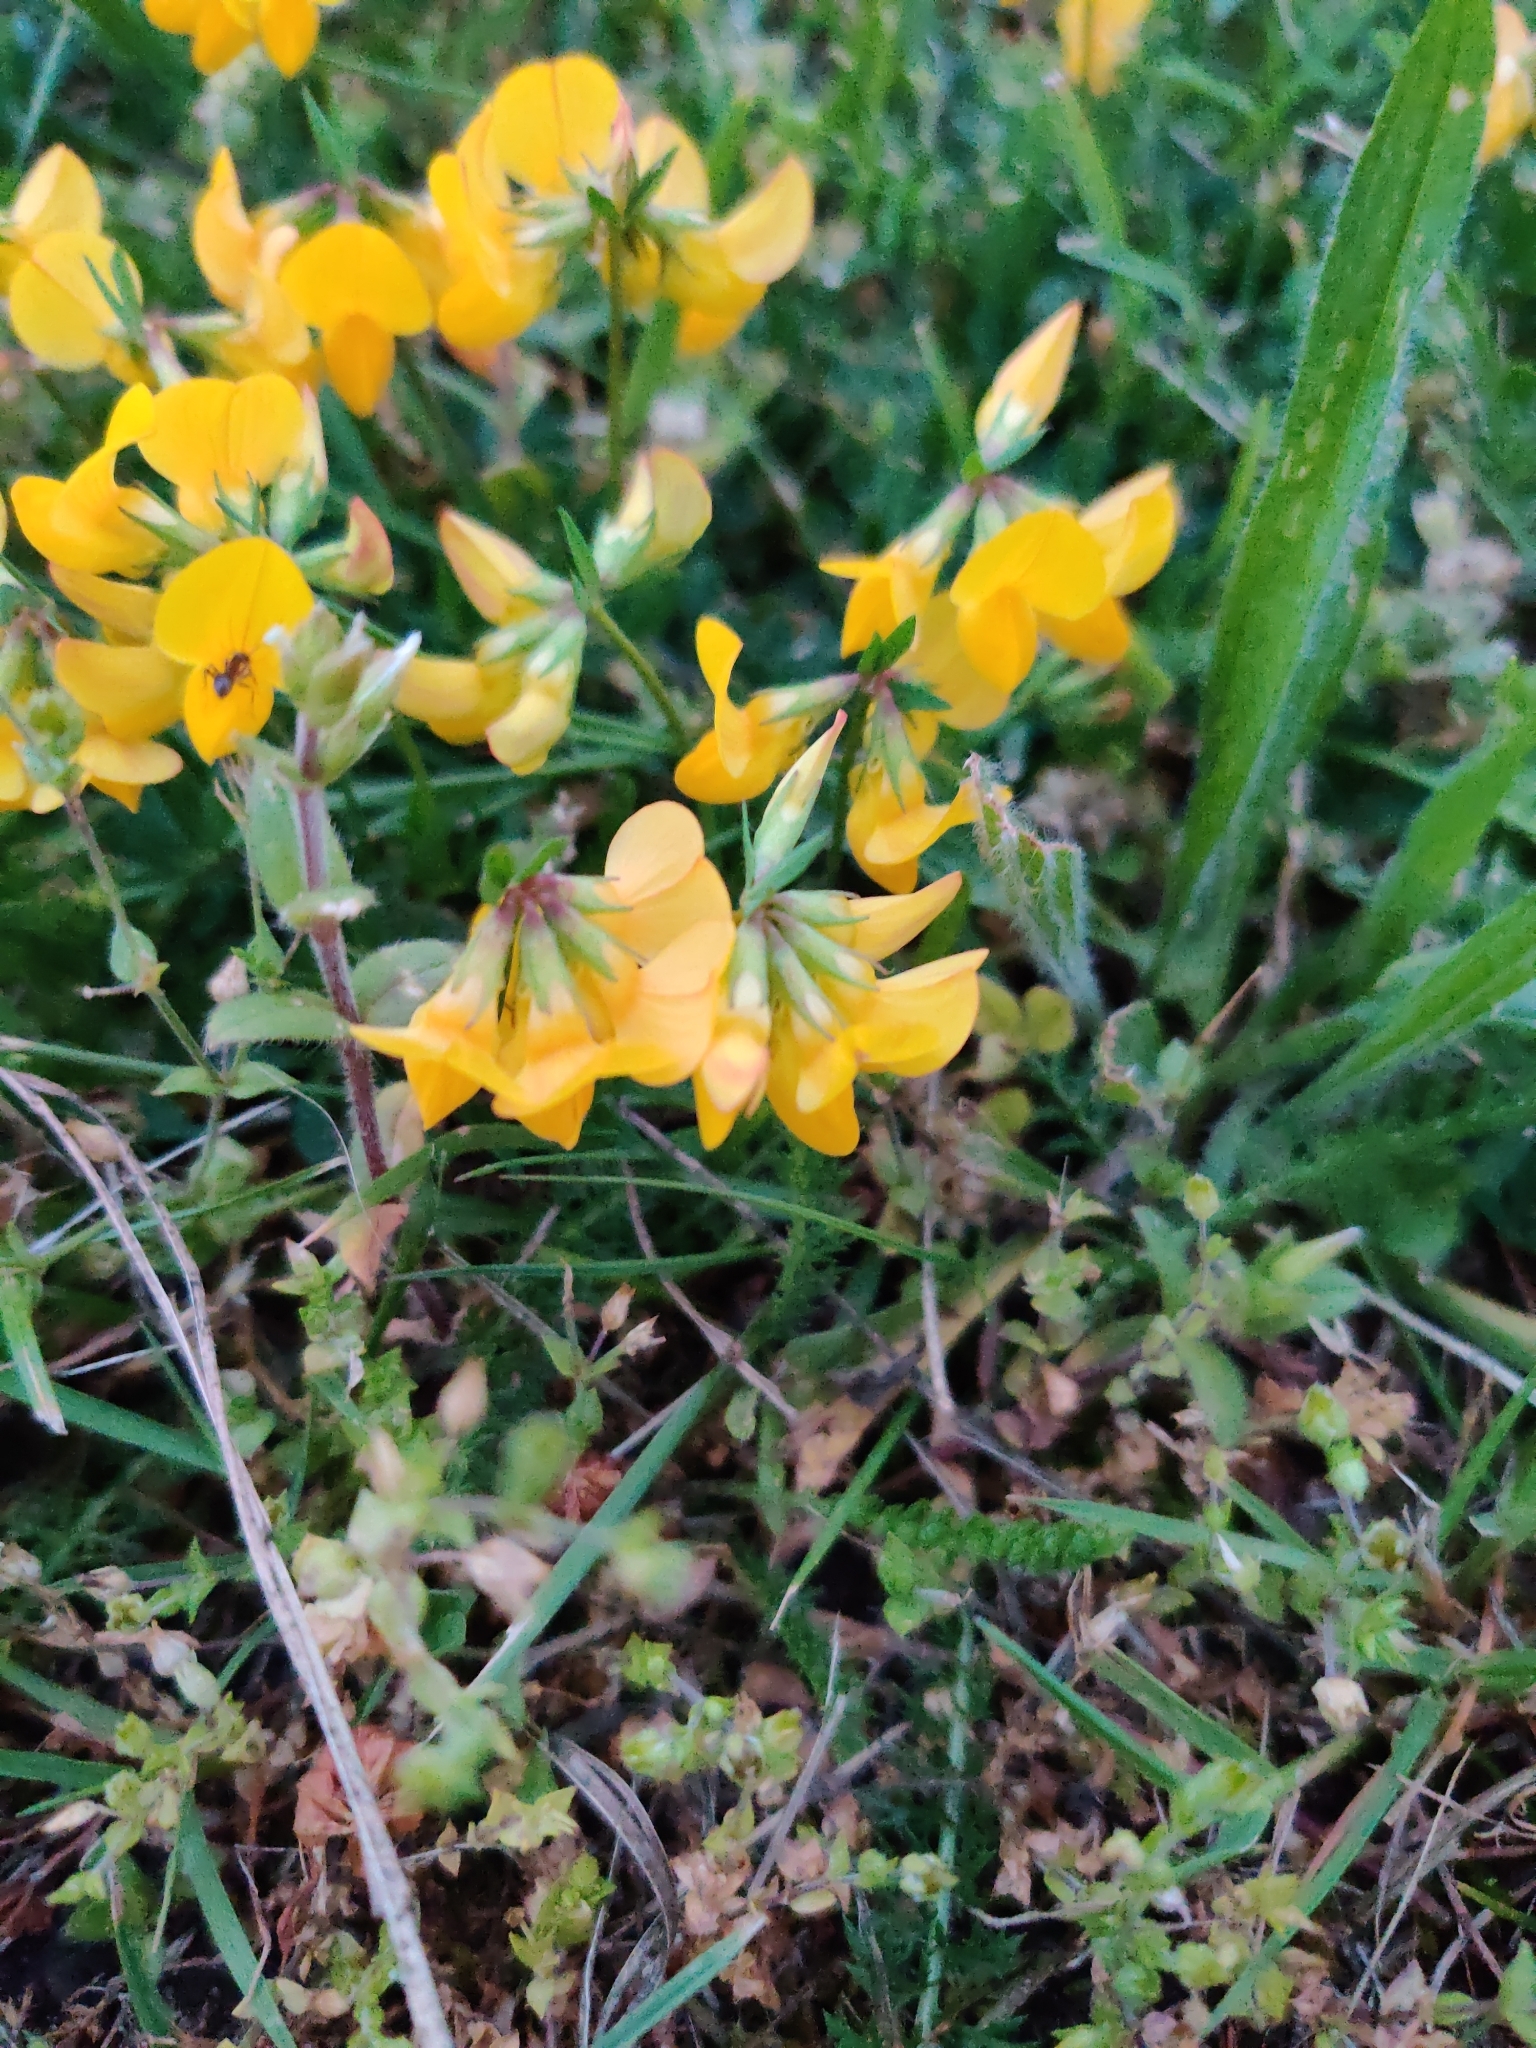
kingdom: Plantae
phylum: Tracheophyta
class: Magnoliopsida
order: Fabales
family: Fabaceae
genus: Lotus
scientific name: Lotus corniculatus
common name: Common bird's-foot-trefoil
